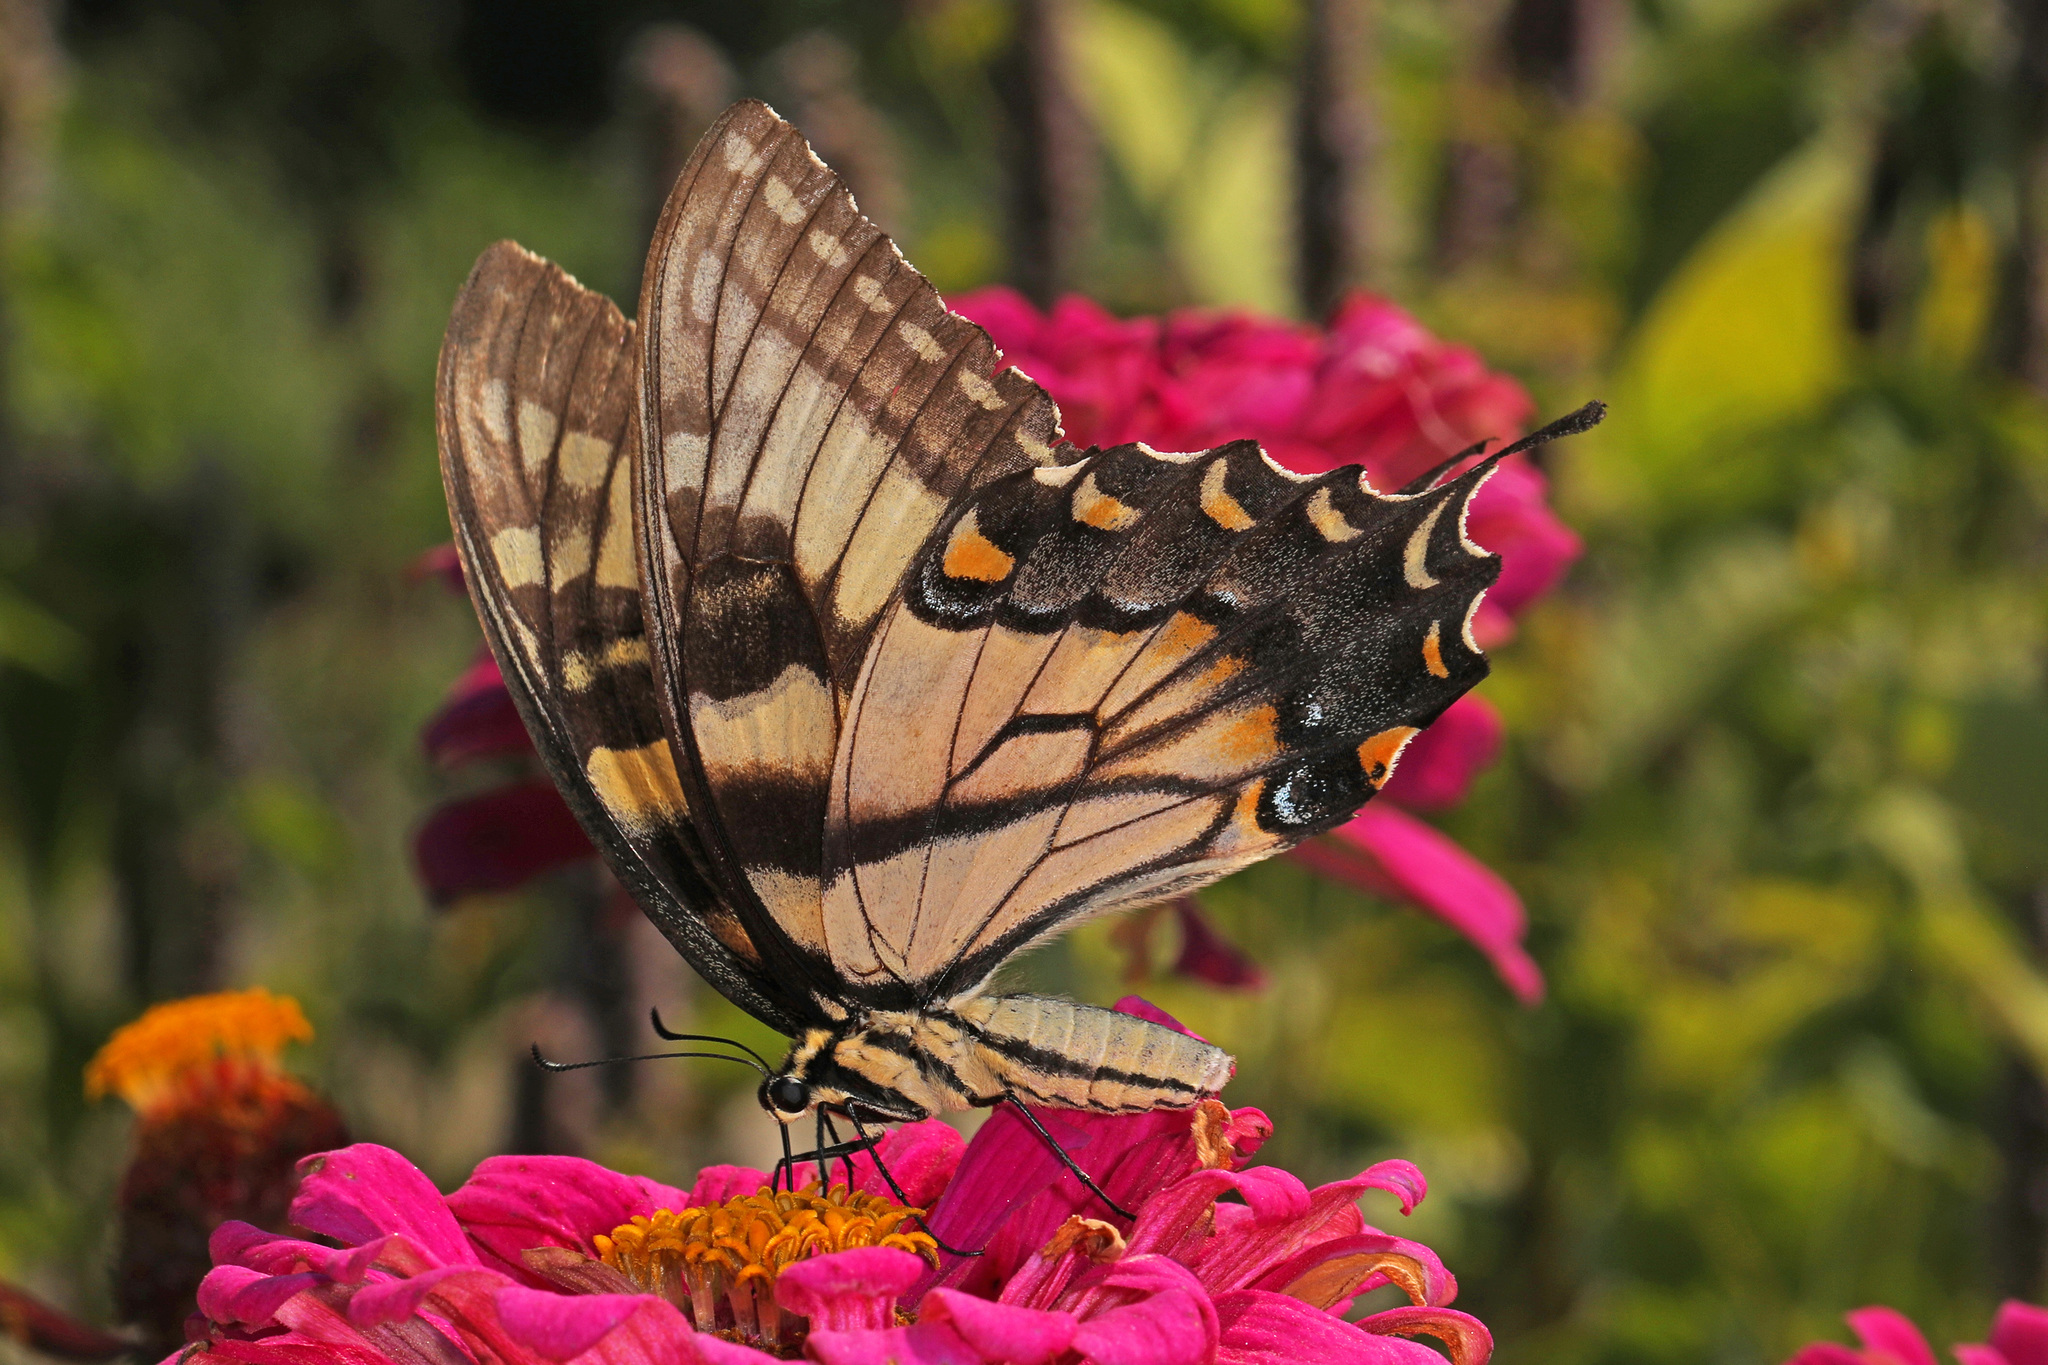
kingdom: Animalia
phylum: Arthropoda
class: Insecta
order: Lepidoptera
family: Papilionidae
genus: Papilio
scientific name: Papilio glaucus
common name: Tiger swallowtail
